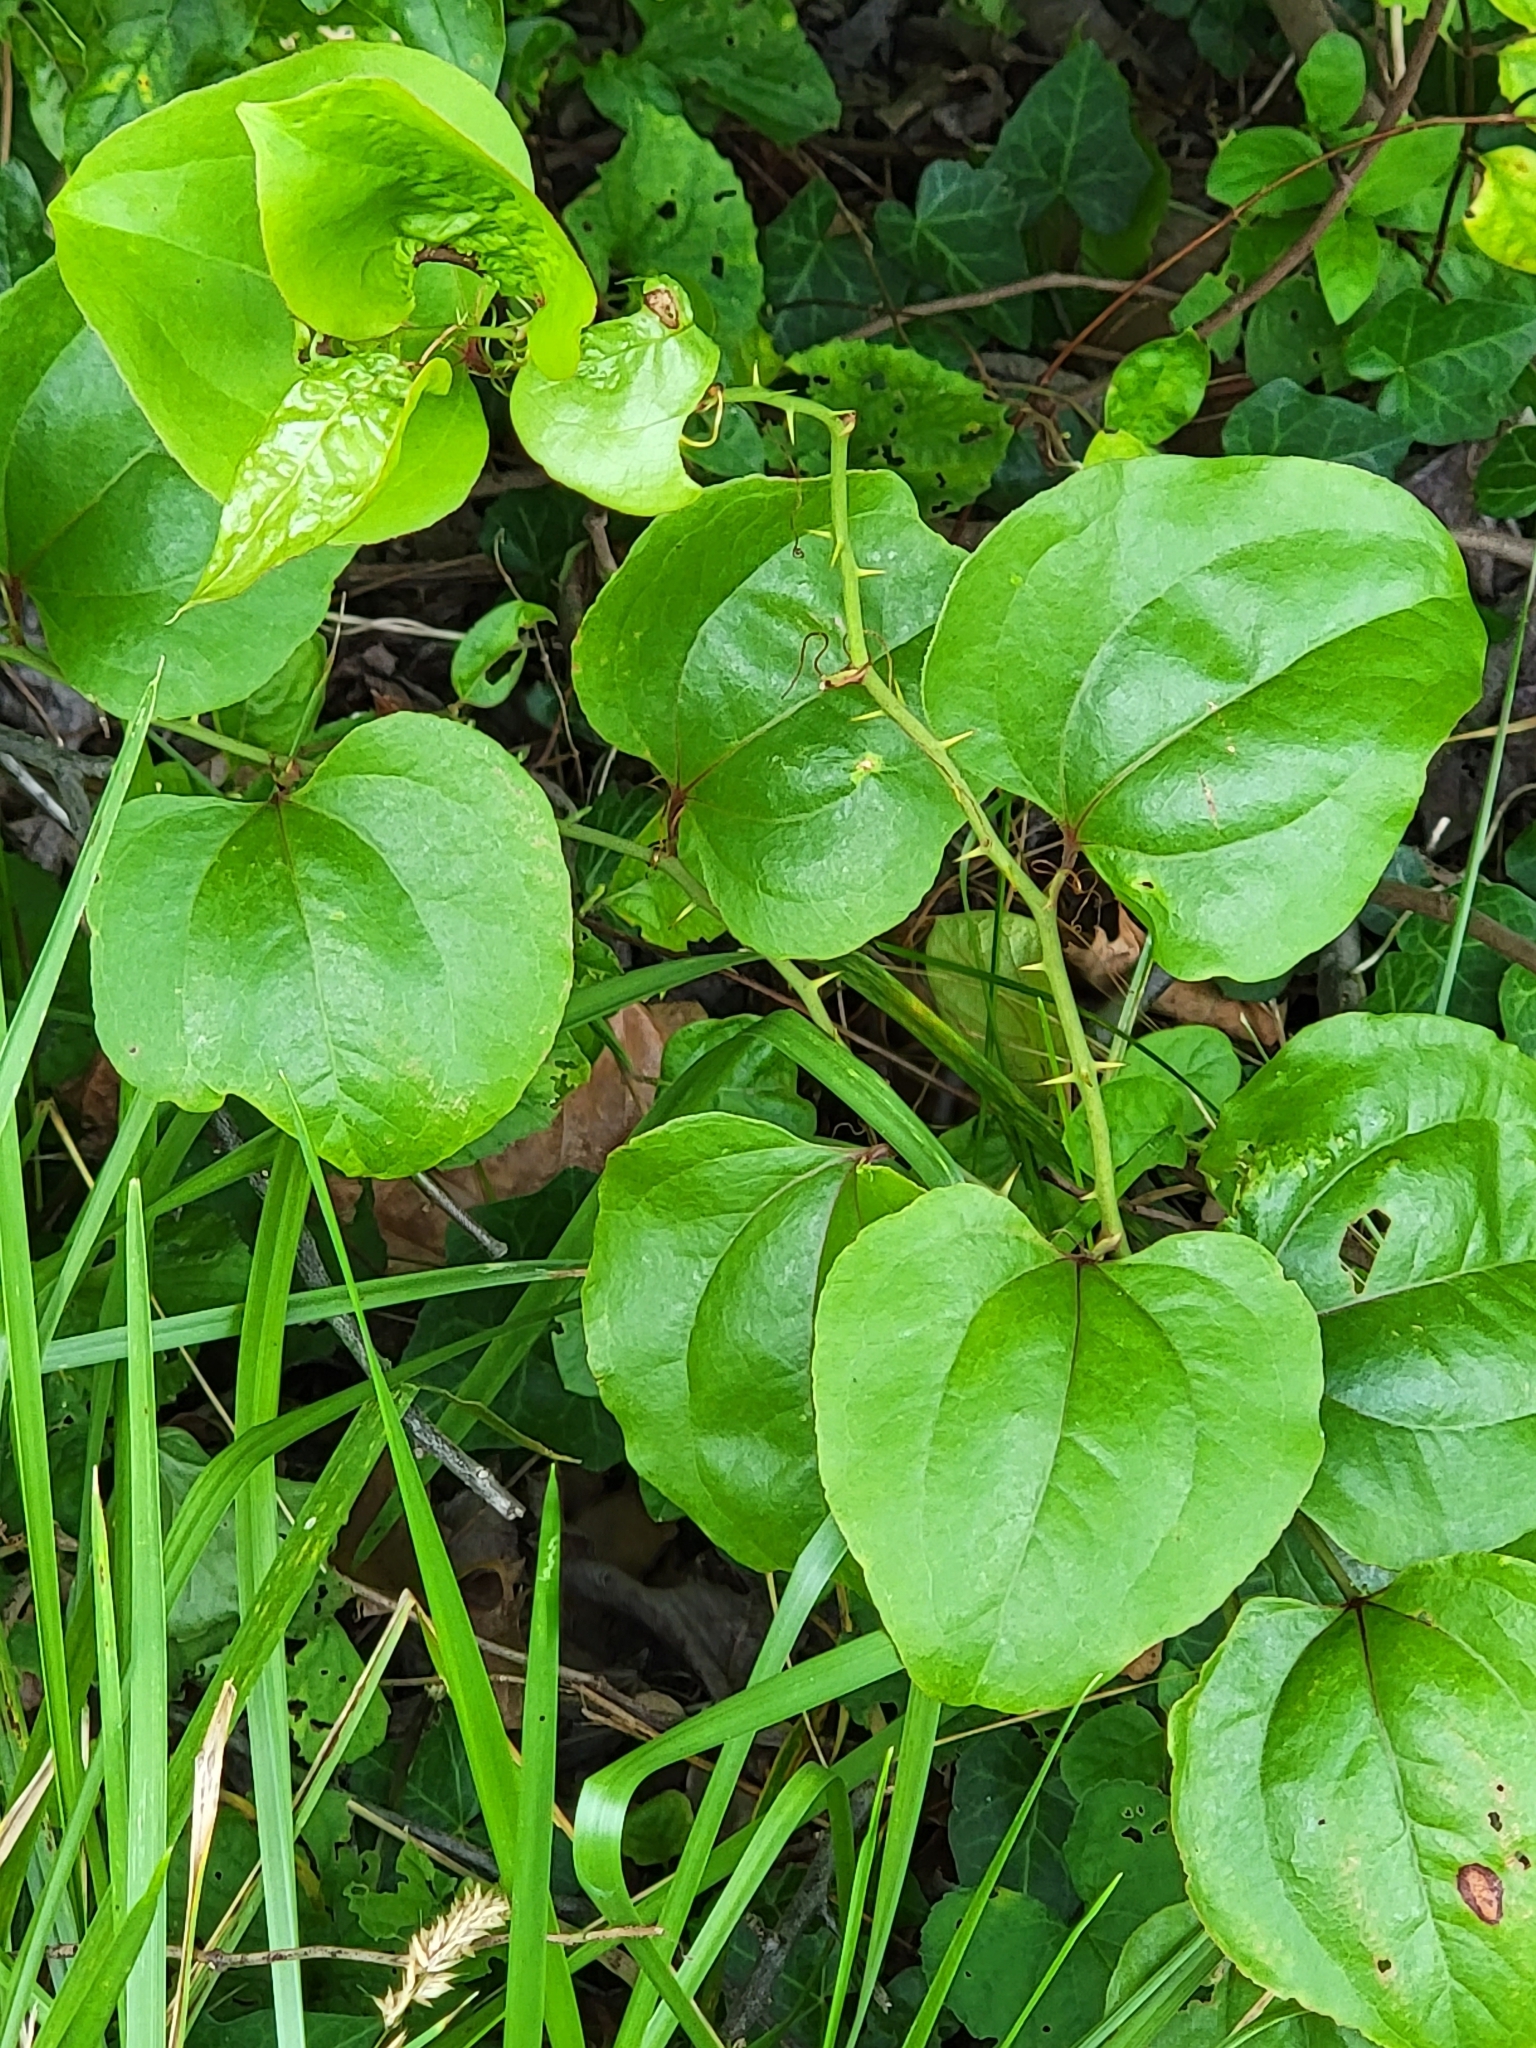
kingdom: Plantae
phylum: Tracheophyta
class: Liliopsida
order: Liliales
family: Smilacaceae
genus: Smilax
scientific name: Smilax rotundifolia
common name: Bullbriar
